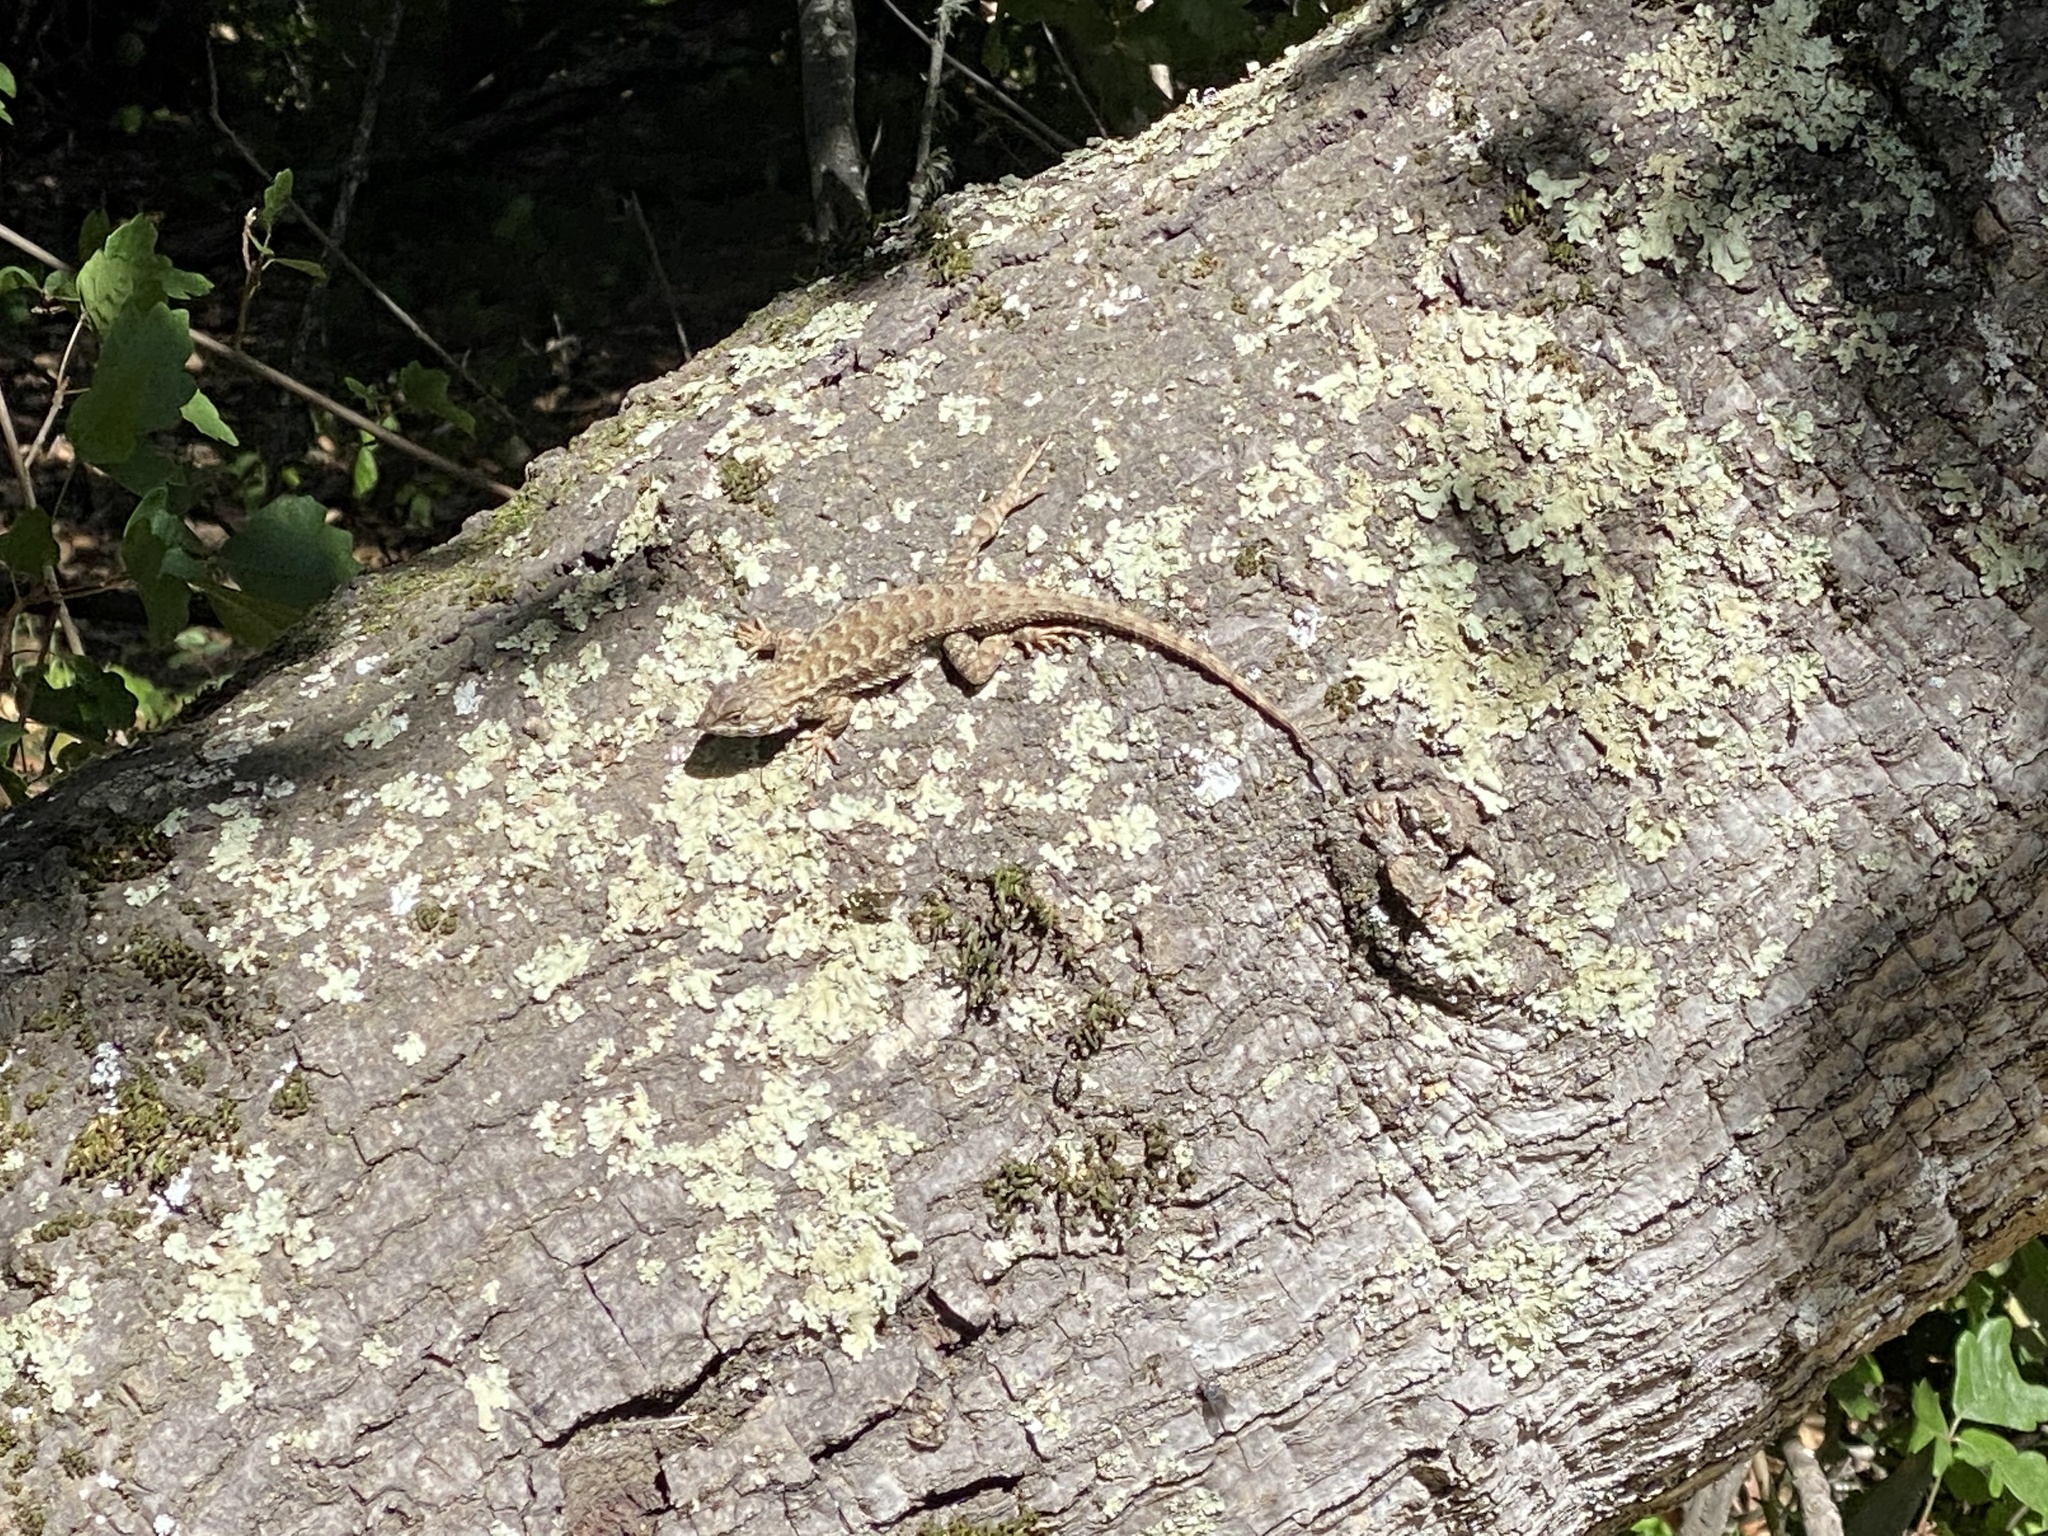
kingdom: Animalia
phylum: Chordata
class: Squamata
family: Phrynosomatidae
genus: Sceloporus
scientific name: Sceloporus occidentalis
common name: Western fence lizard
